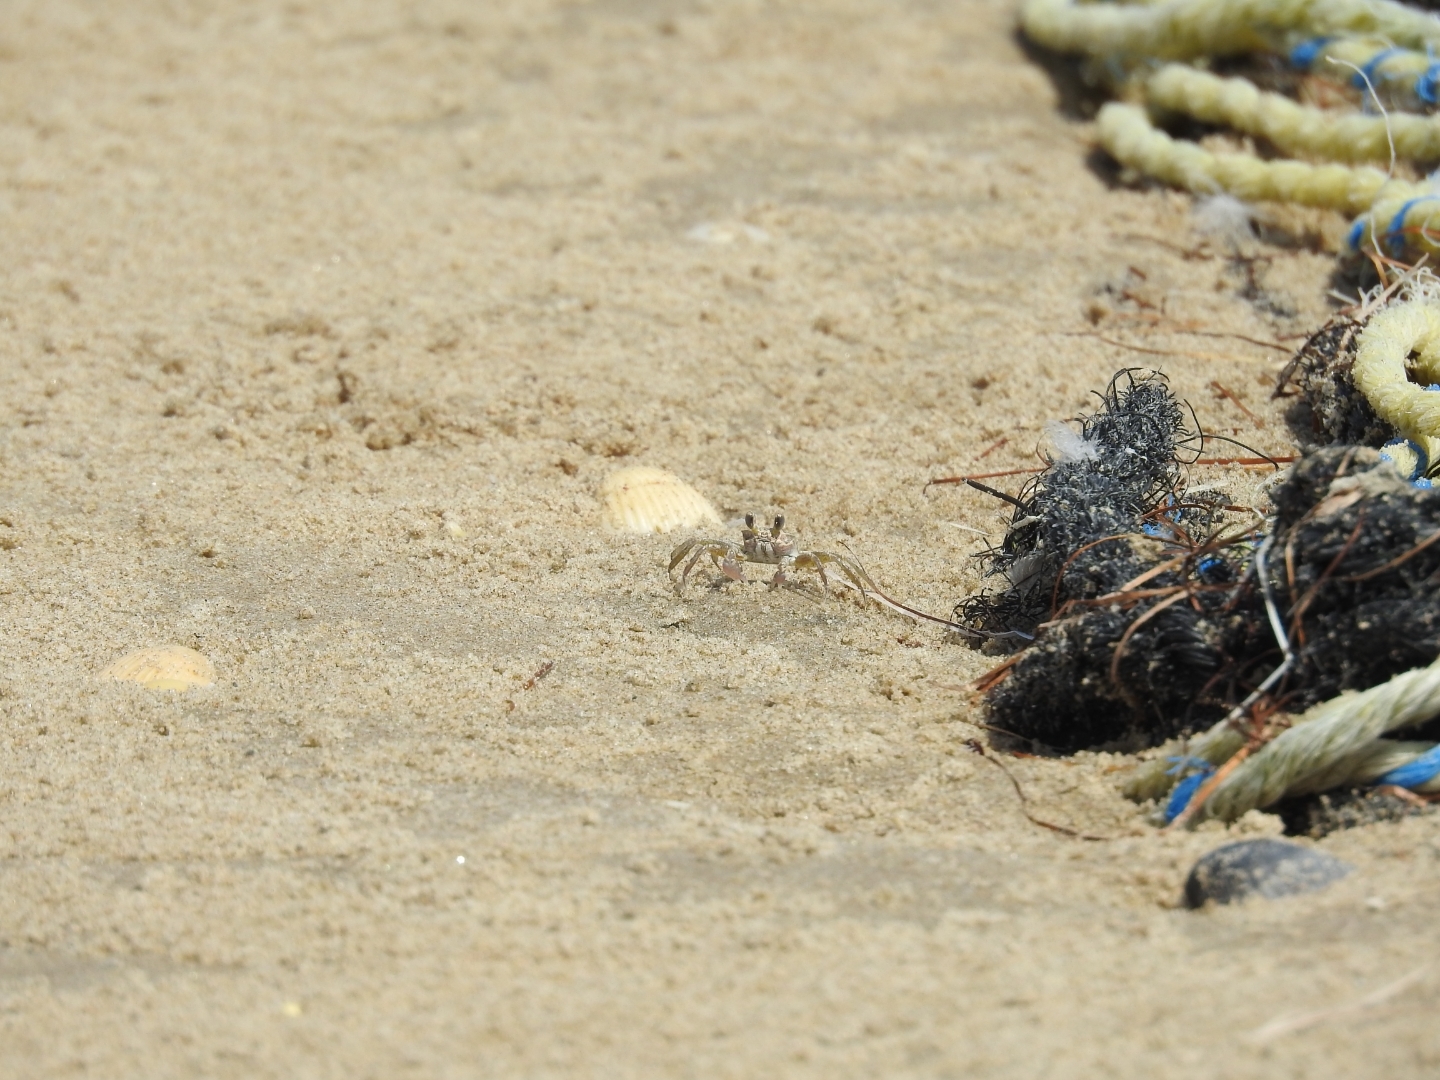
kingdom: Animalia
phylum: Arthropoda
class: Malacostraca
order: Decapoda
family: Ocypodidae
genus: Ocypode
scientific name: Ocypode quadrata
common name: Ghost crab
